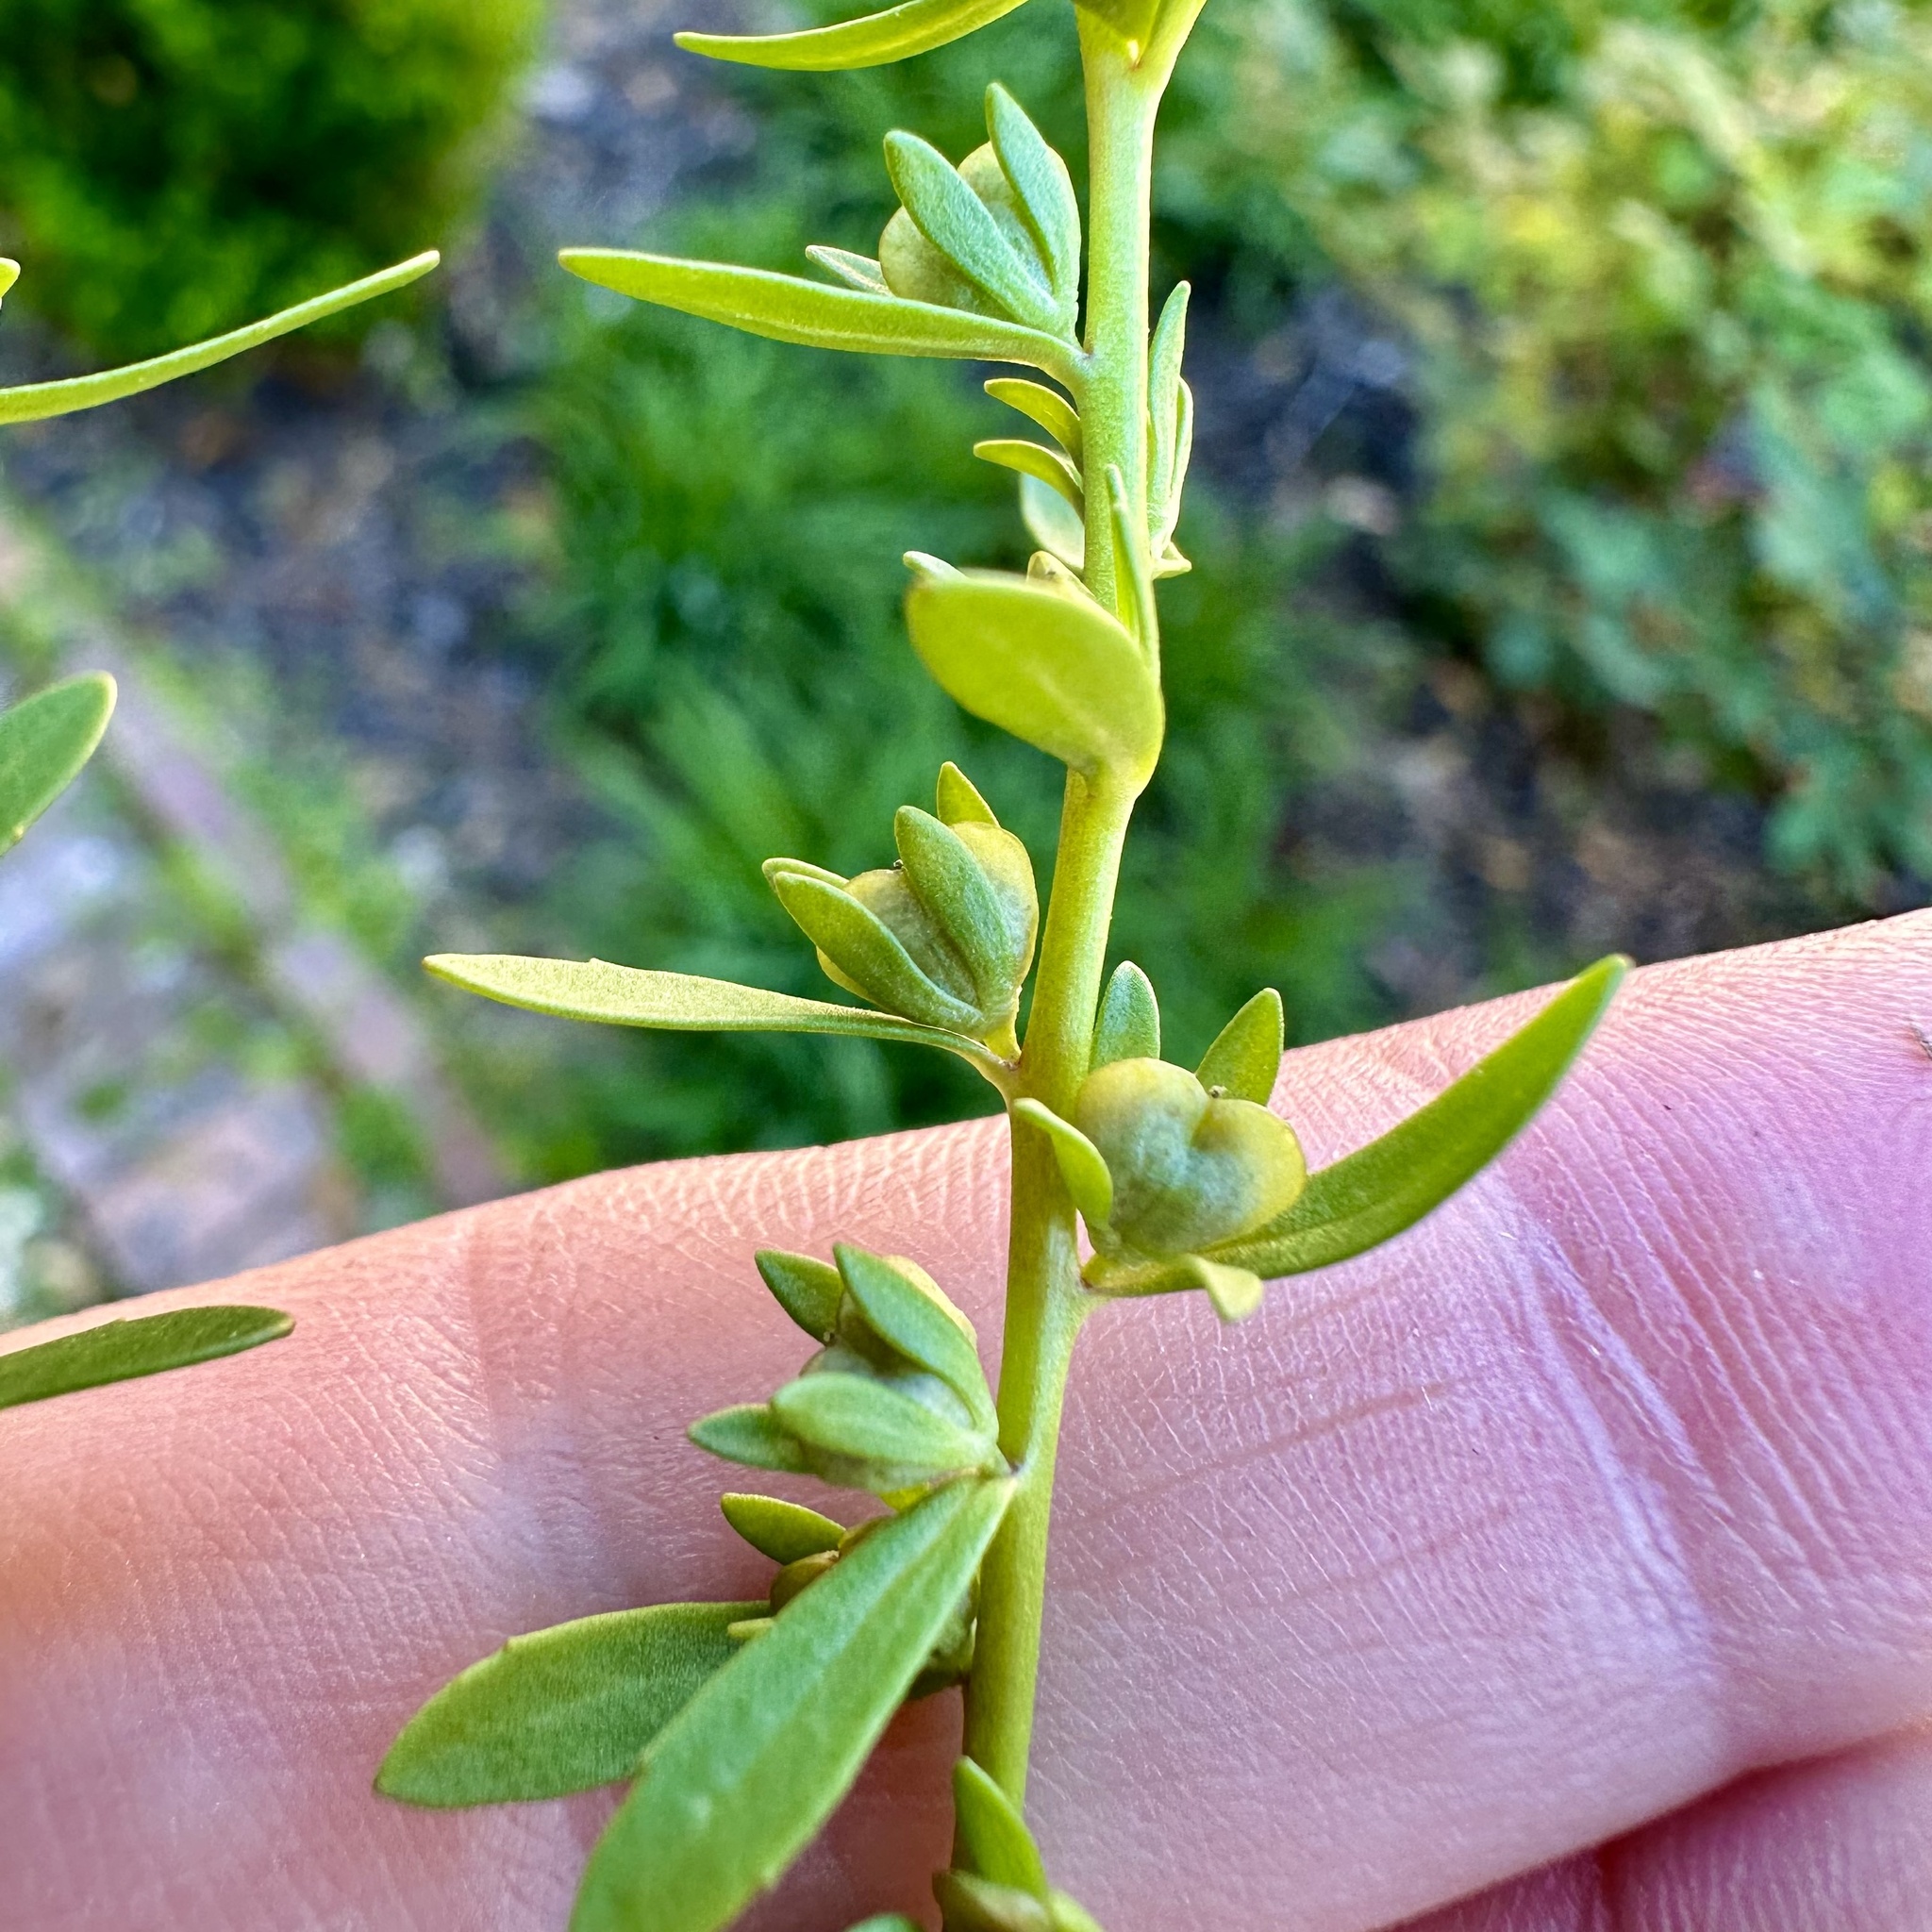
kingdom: Plantae
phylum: Tracheophyta
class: Magnoliopsida
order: Lamiales
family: Plantaginaceae
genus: Veronica
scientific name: Veronica peregrina
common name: Neckweed
